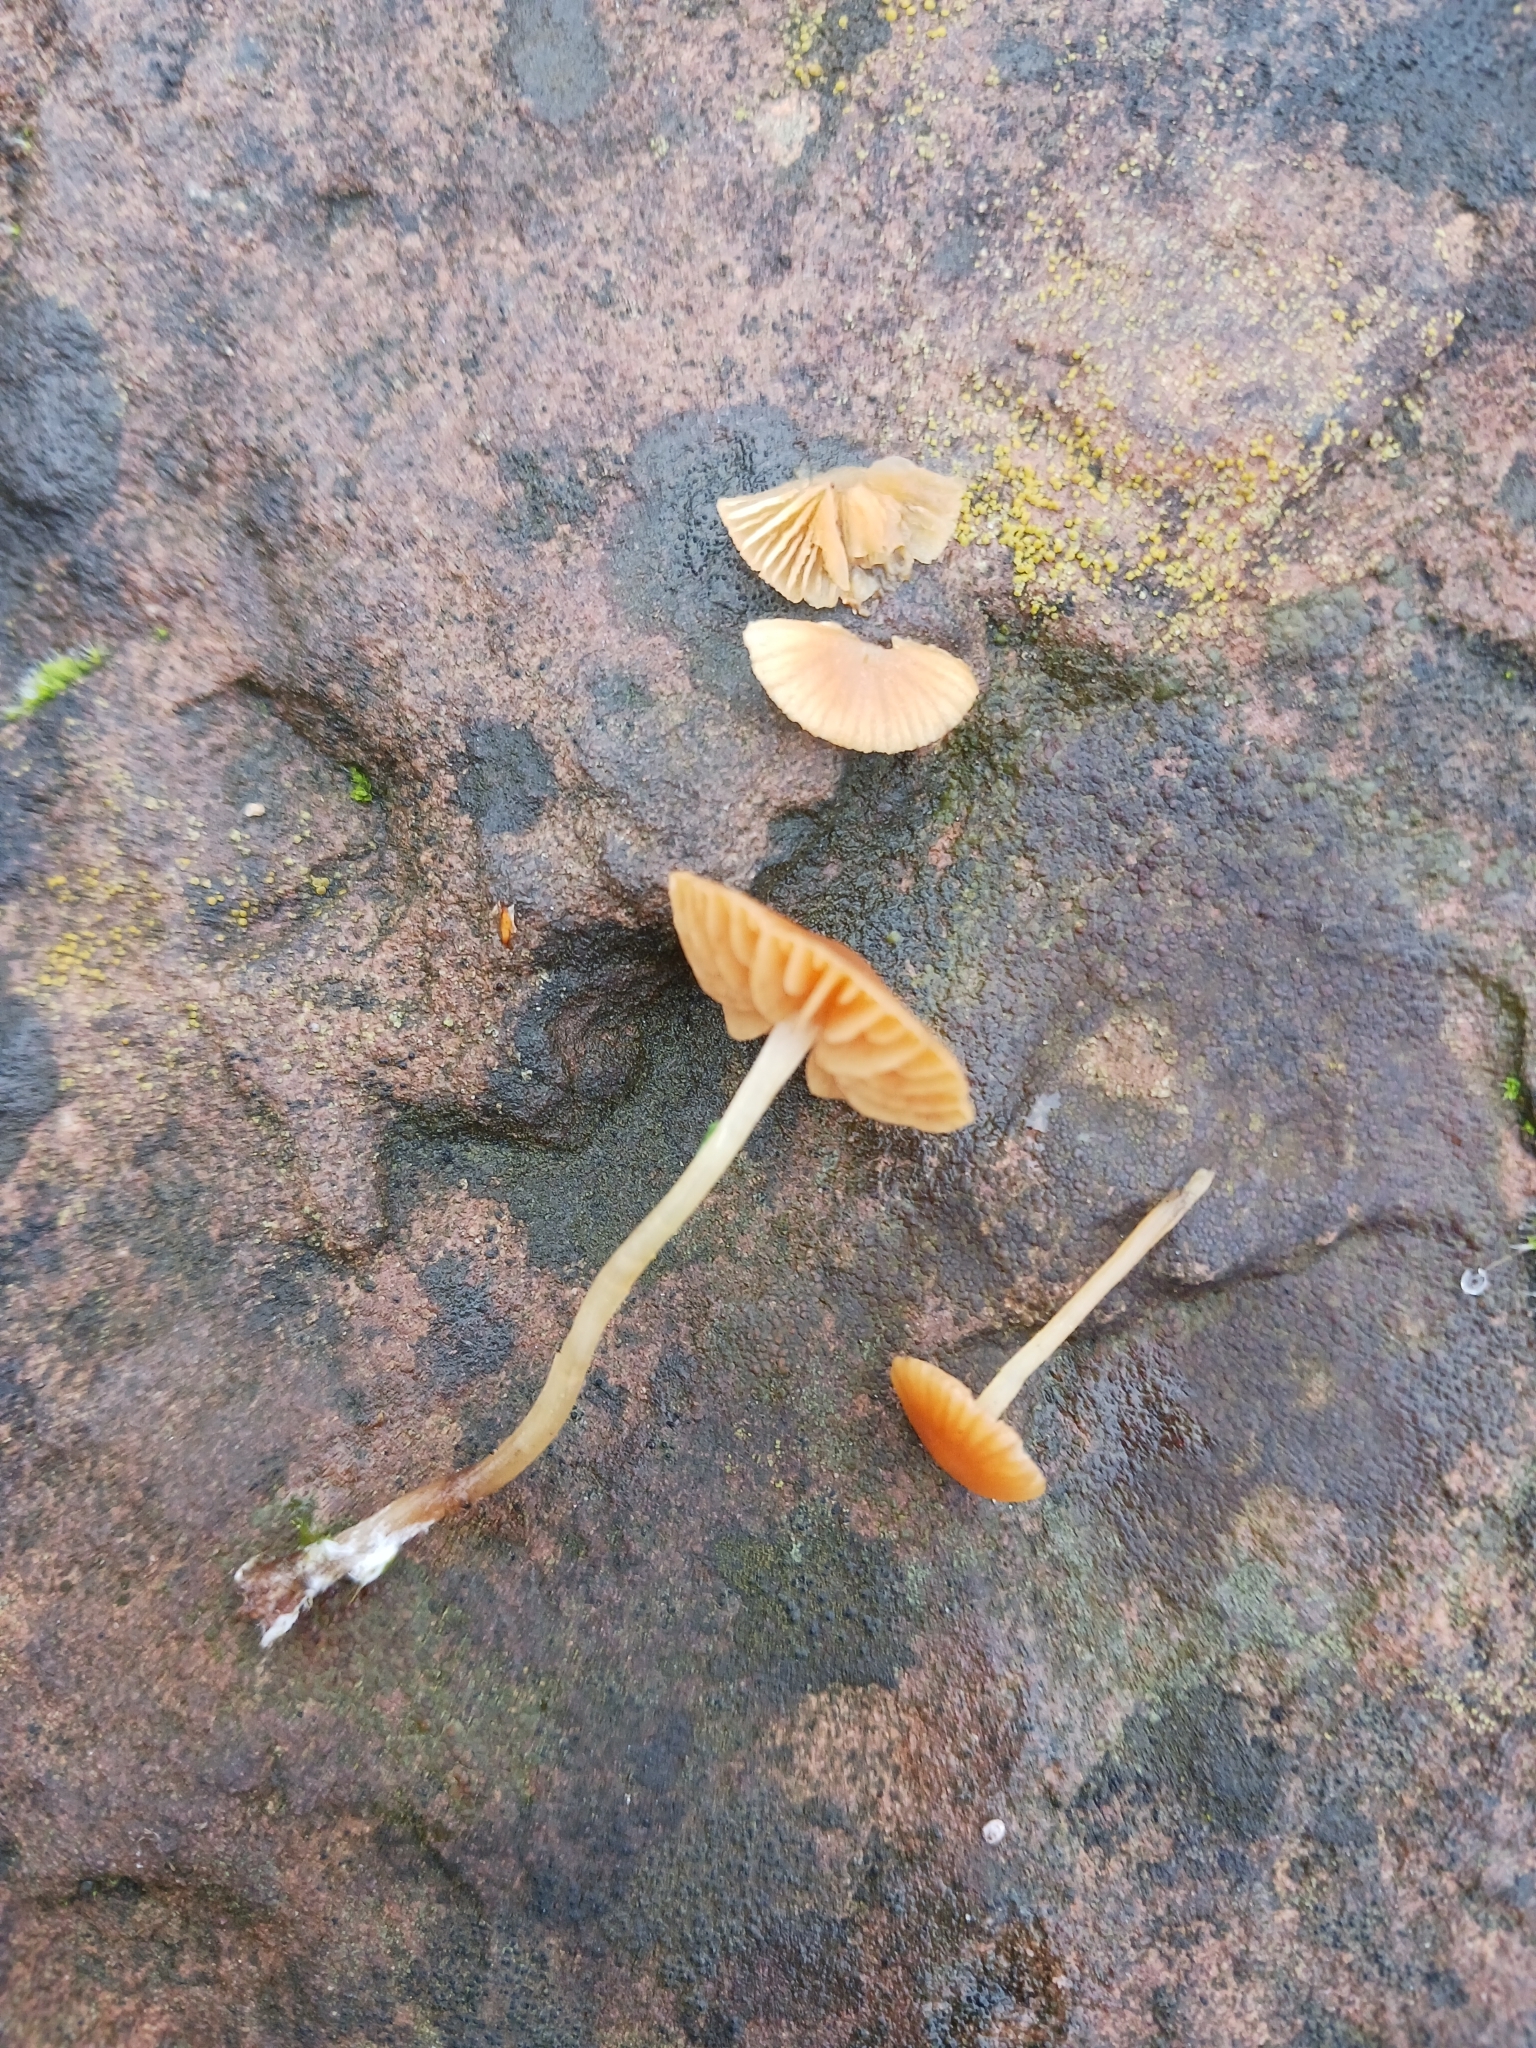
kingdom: Fungi
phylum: Basidiomycota
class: Agaricomycetes
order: Agaricales
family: Marasmiaceae
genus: Marasmius
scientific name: Marasmius oreades
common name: Fairy ring champignon
